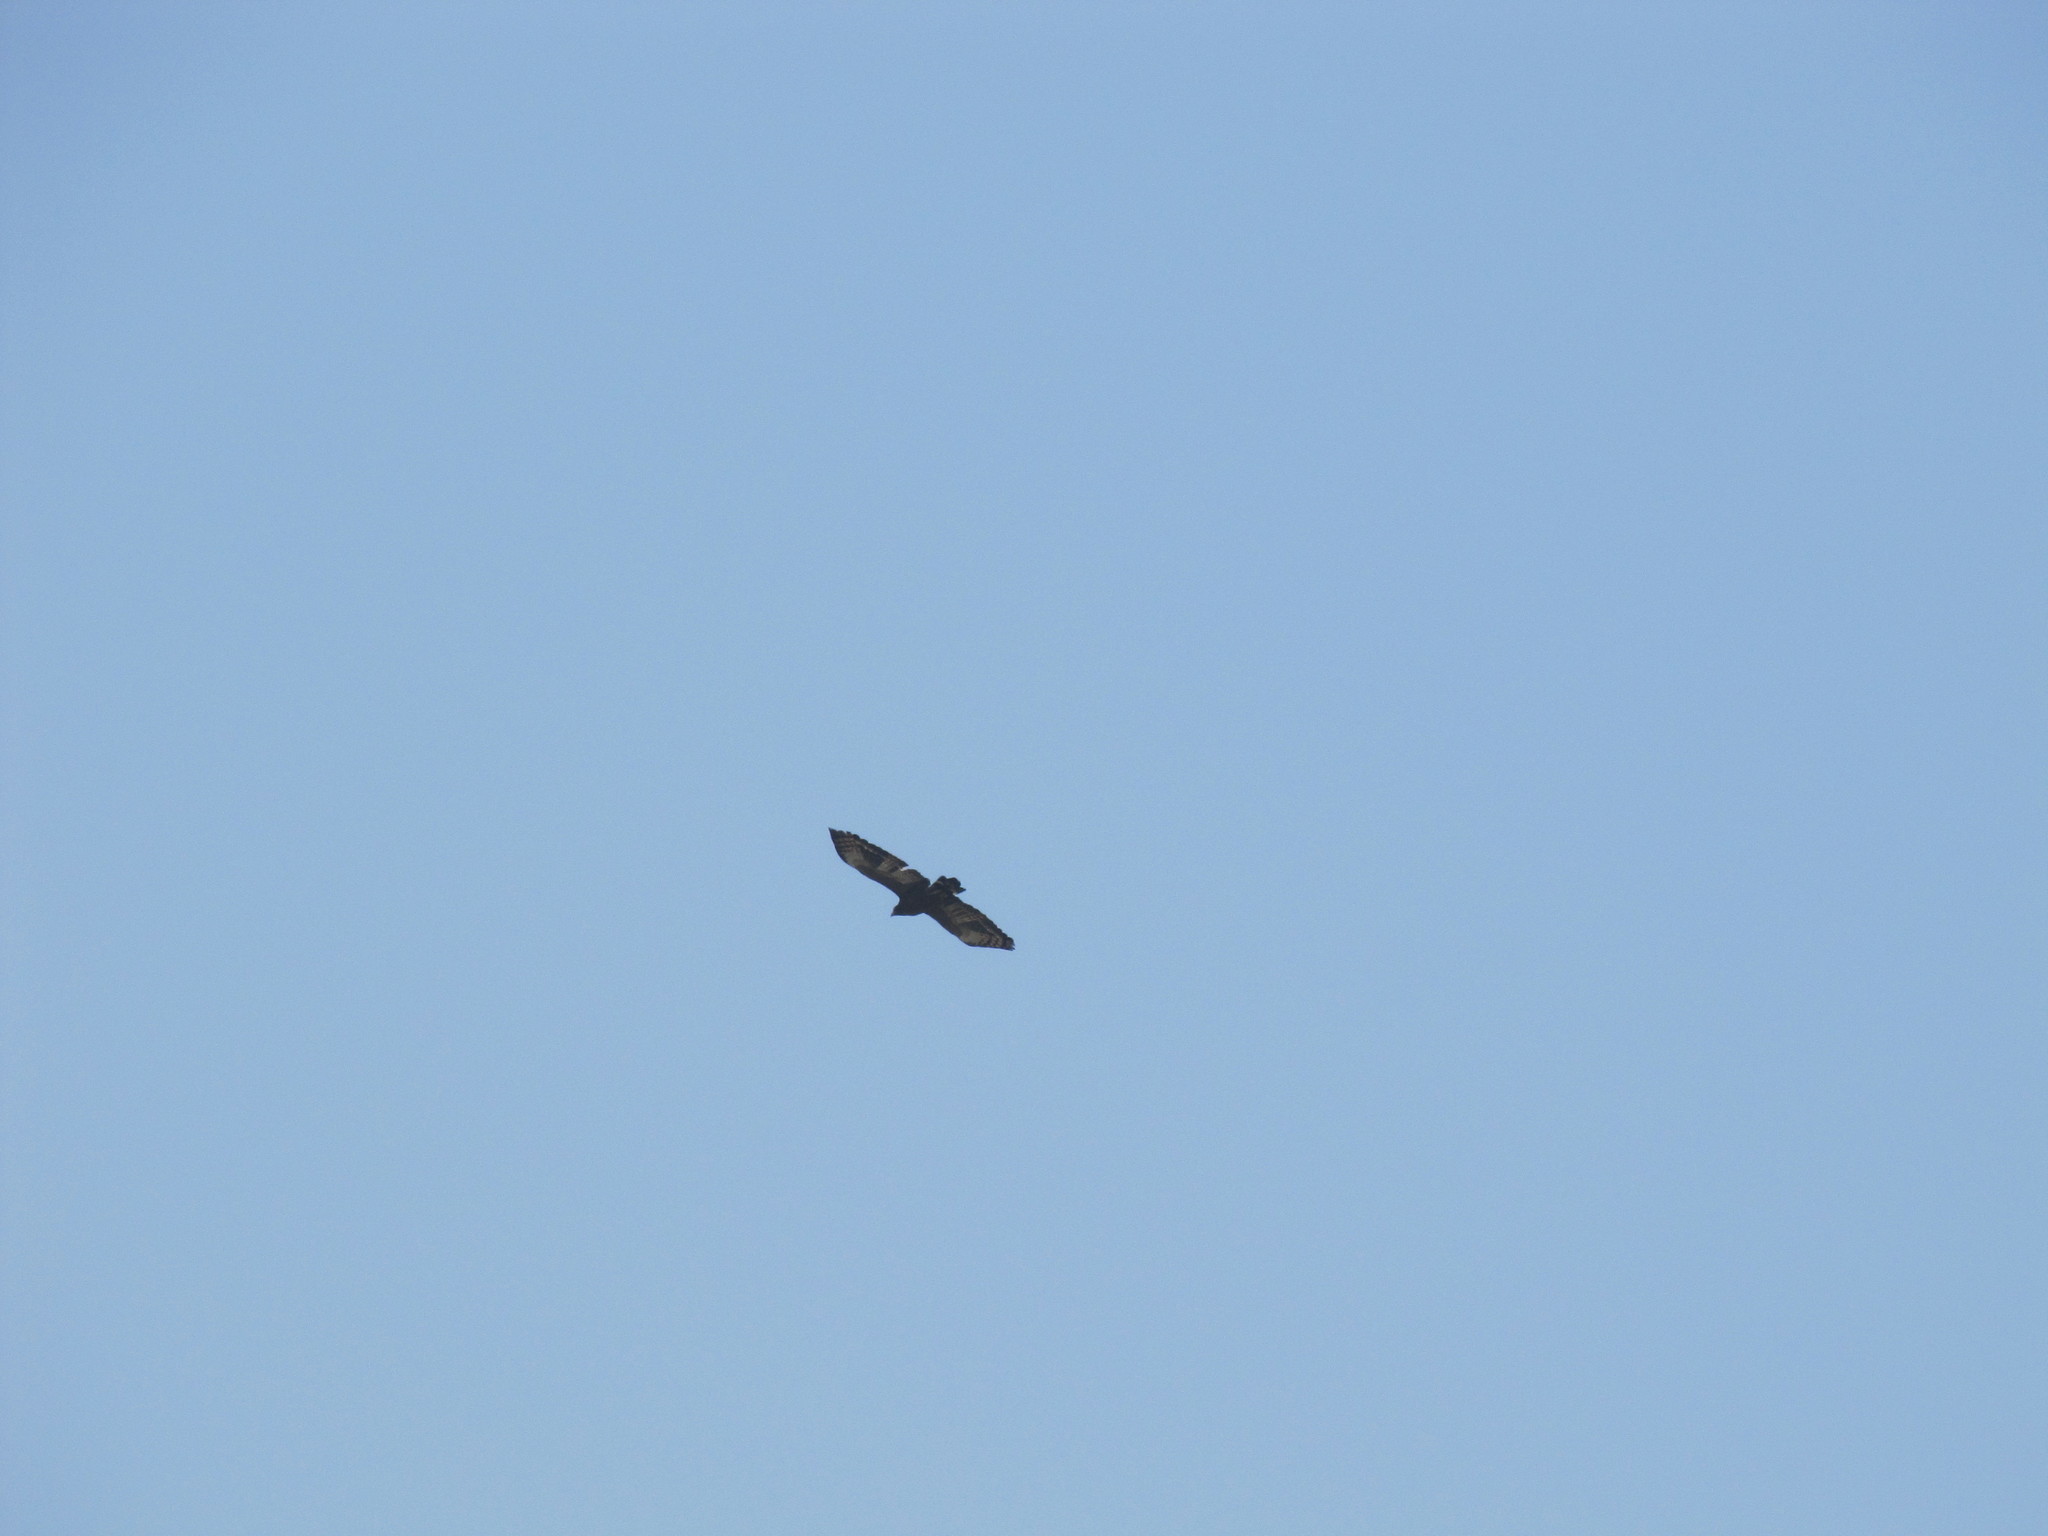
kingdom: Animalia
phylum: Chordata
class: Aves
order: Accipitriformes
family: Accipitridae
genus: Spilornis
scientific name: Spilornis cheela
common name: Crested serpent eagle
